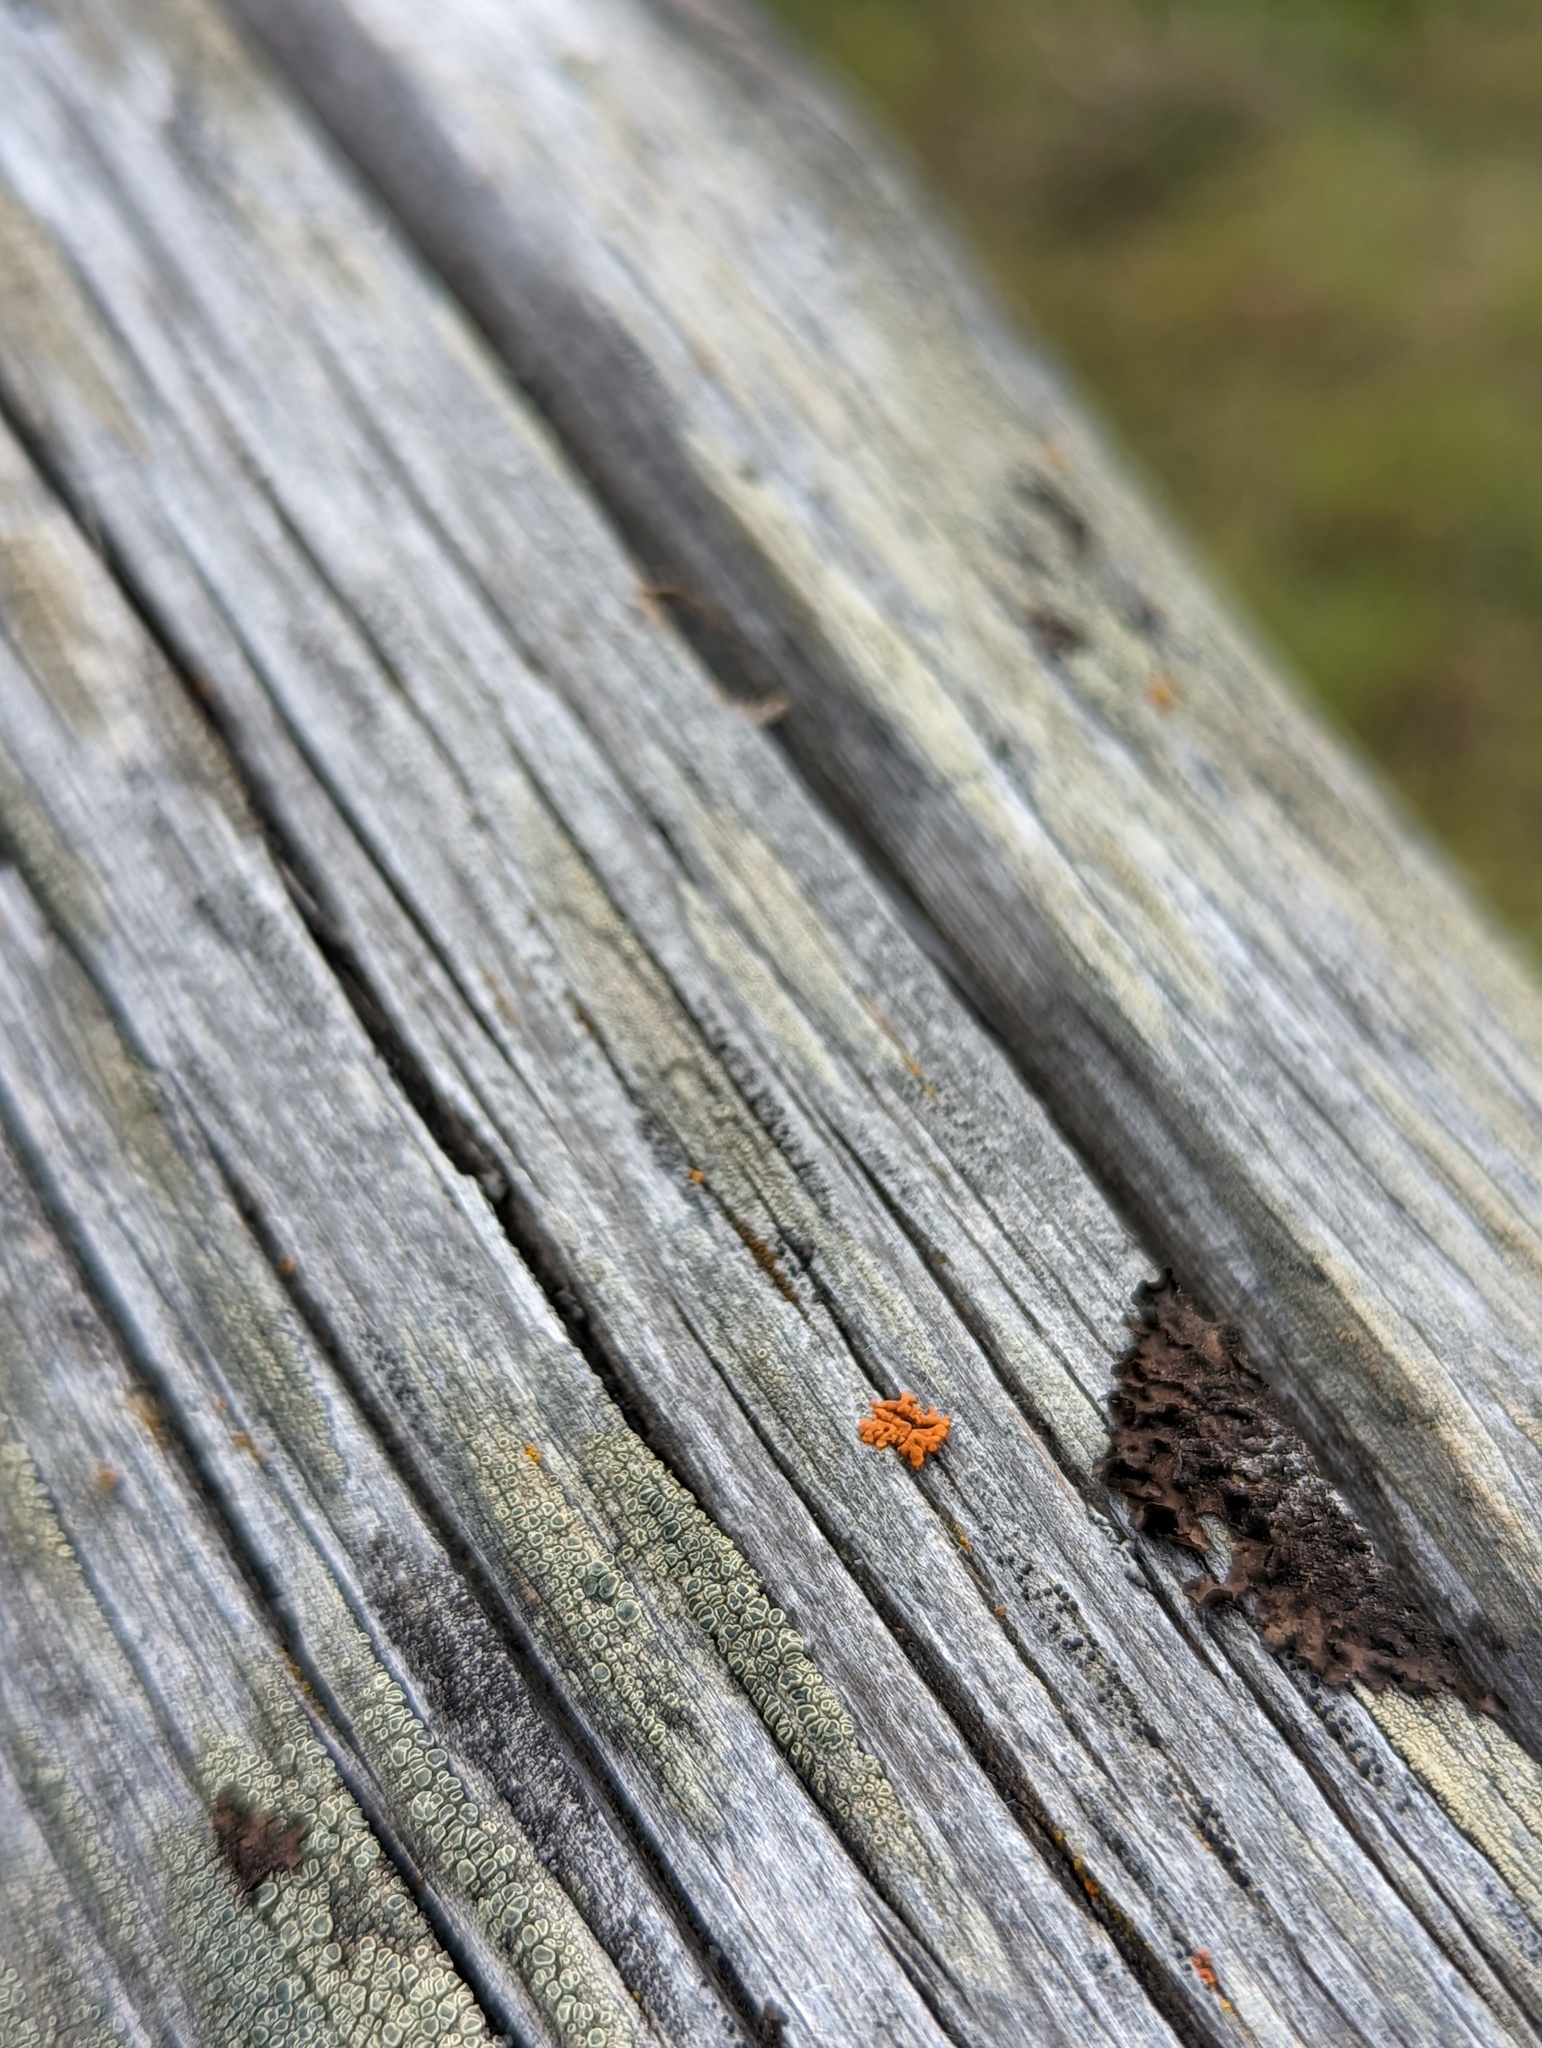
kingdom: Fungi
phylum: Ascomycota
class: Lecanoromycetes
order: Teloschistales
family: Teloschistaceae
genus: Xanthoria
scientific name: Xanthoria elegans
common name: Elegant sunburst lichen
